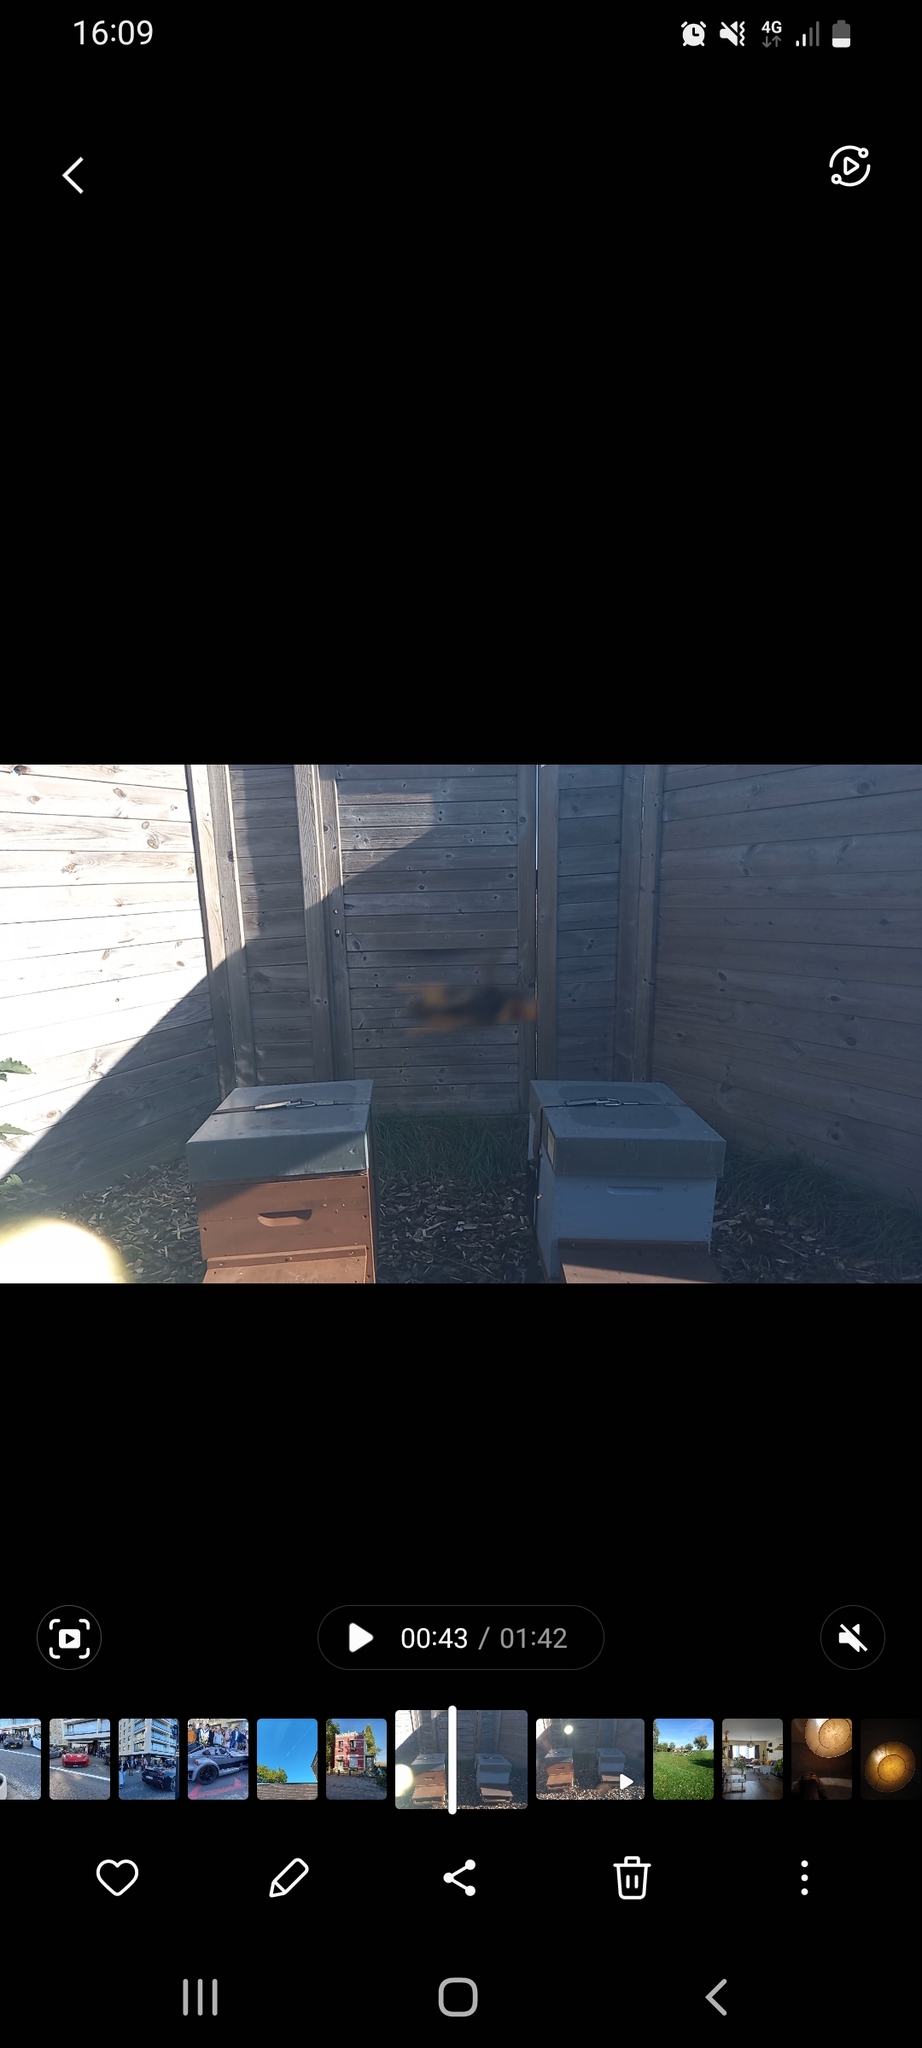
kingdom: Animalia
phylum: Arthropoda
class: Insecta
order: Hymenoptera
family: Vespidae
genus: Vespa
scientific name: Vespa velutina
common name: Asian hornet
